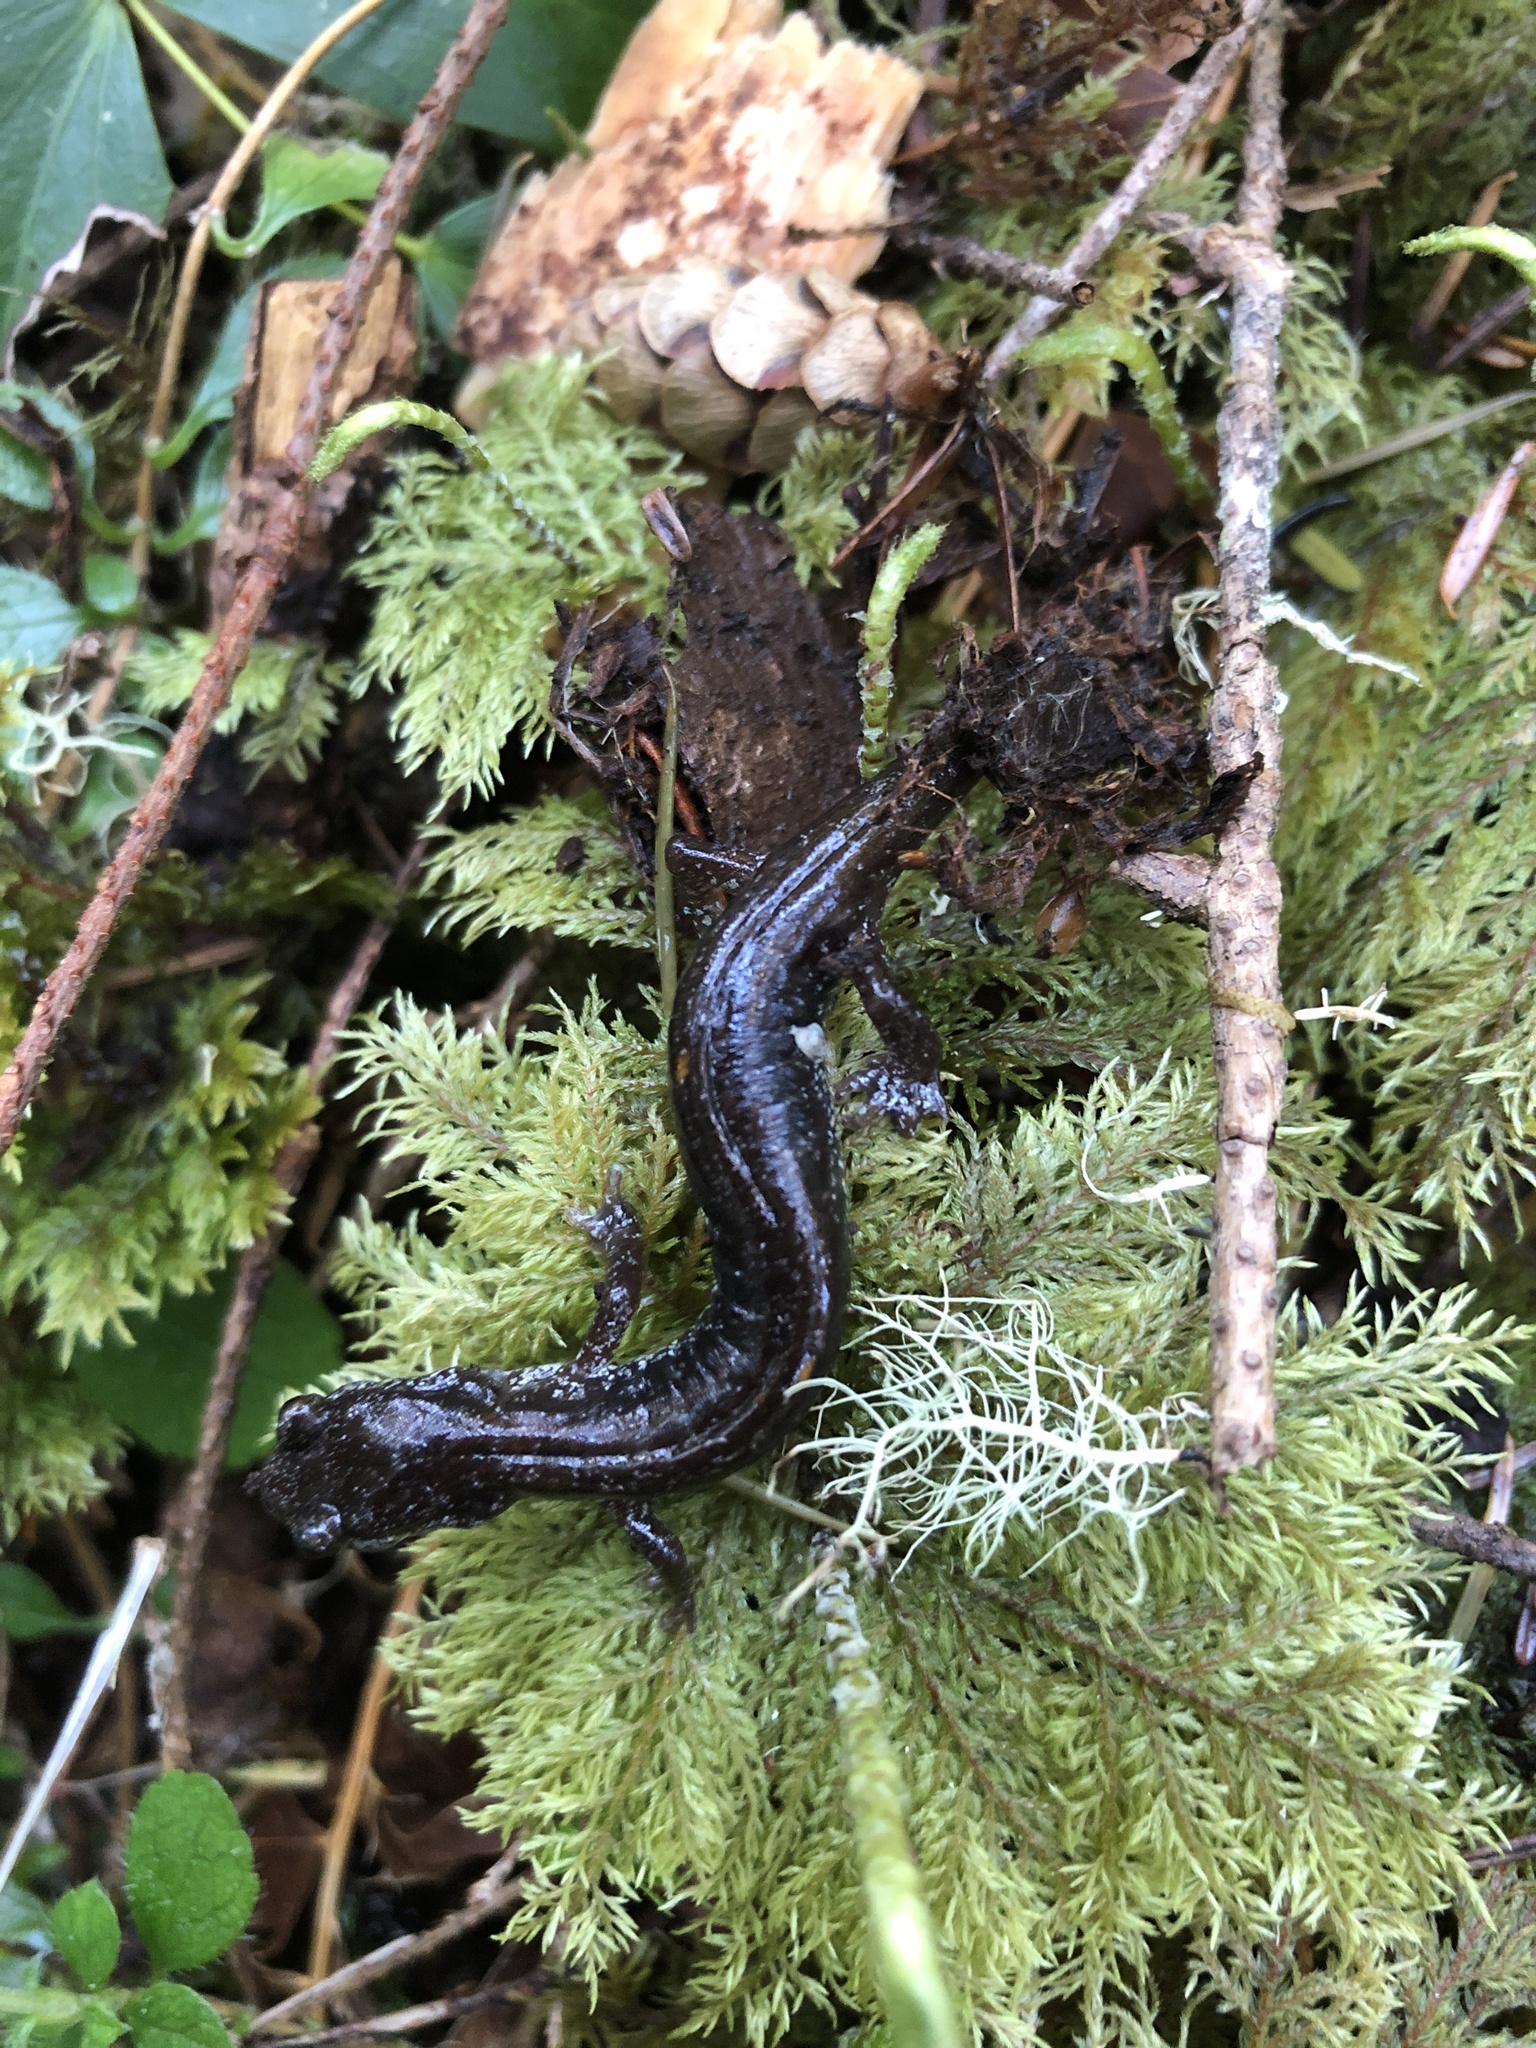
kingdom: Animalia
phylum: Chordata
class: Amphibia
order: Caudata
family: Plethodontidae
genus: Plethodon
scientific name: Plethodon vehiculum
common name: Western red-backed salamander
